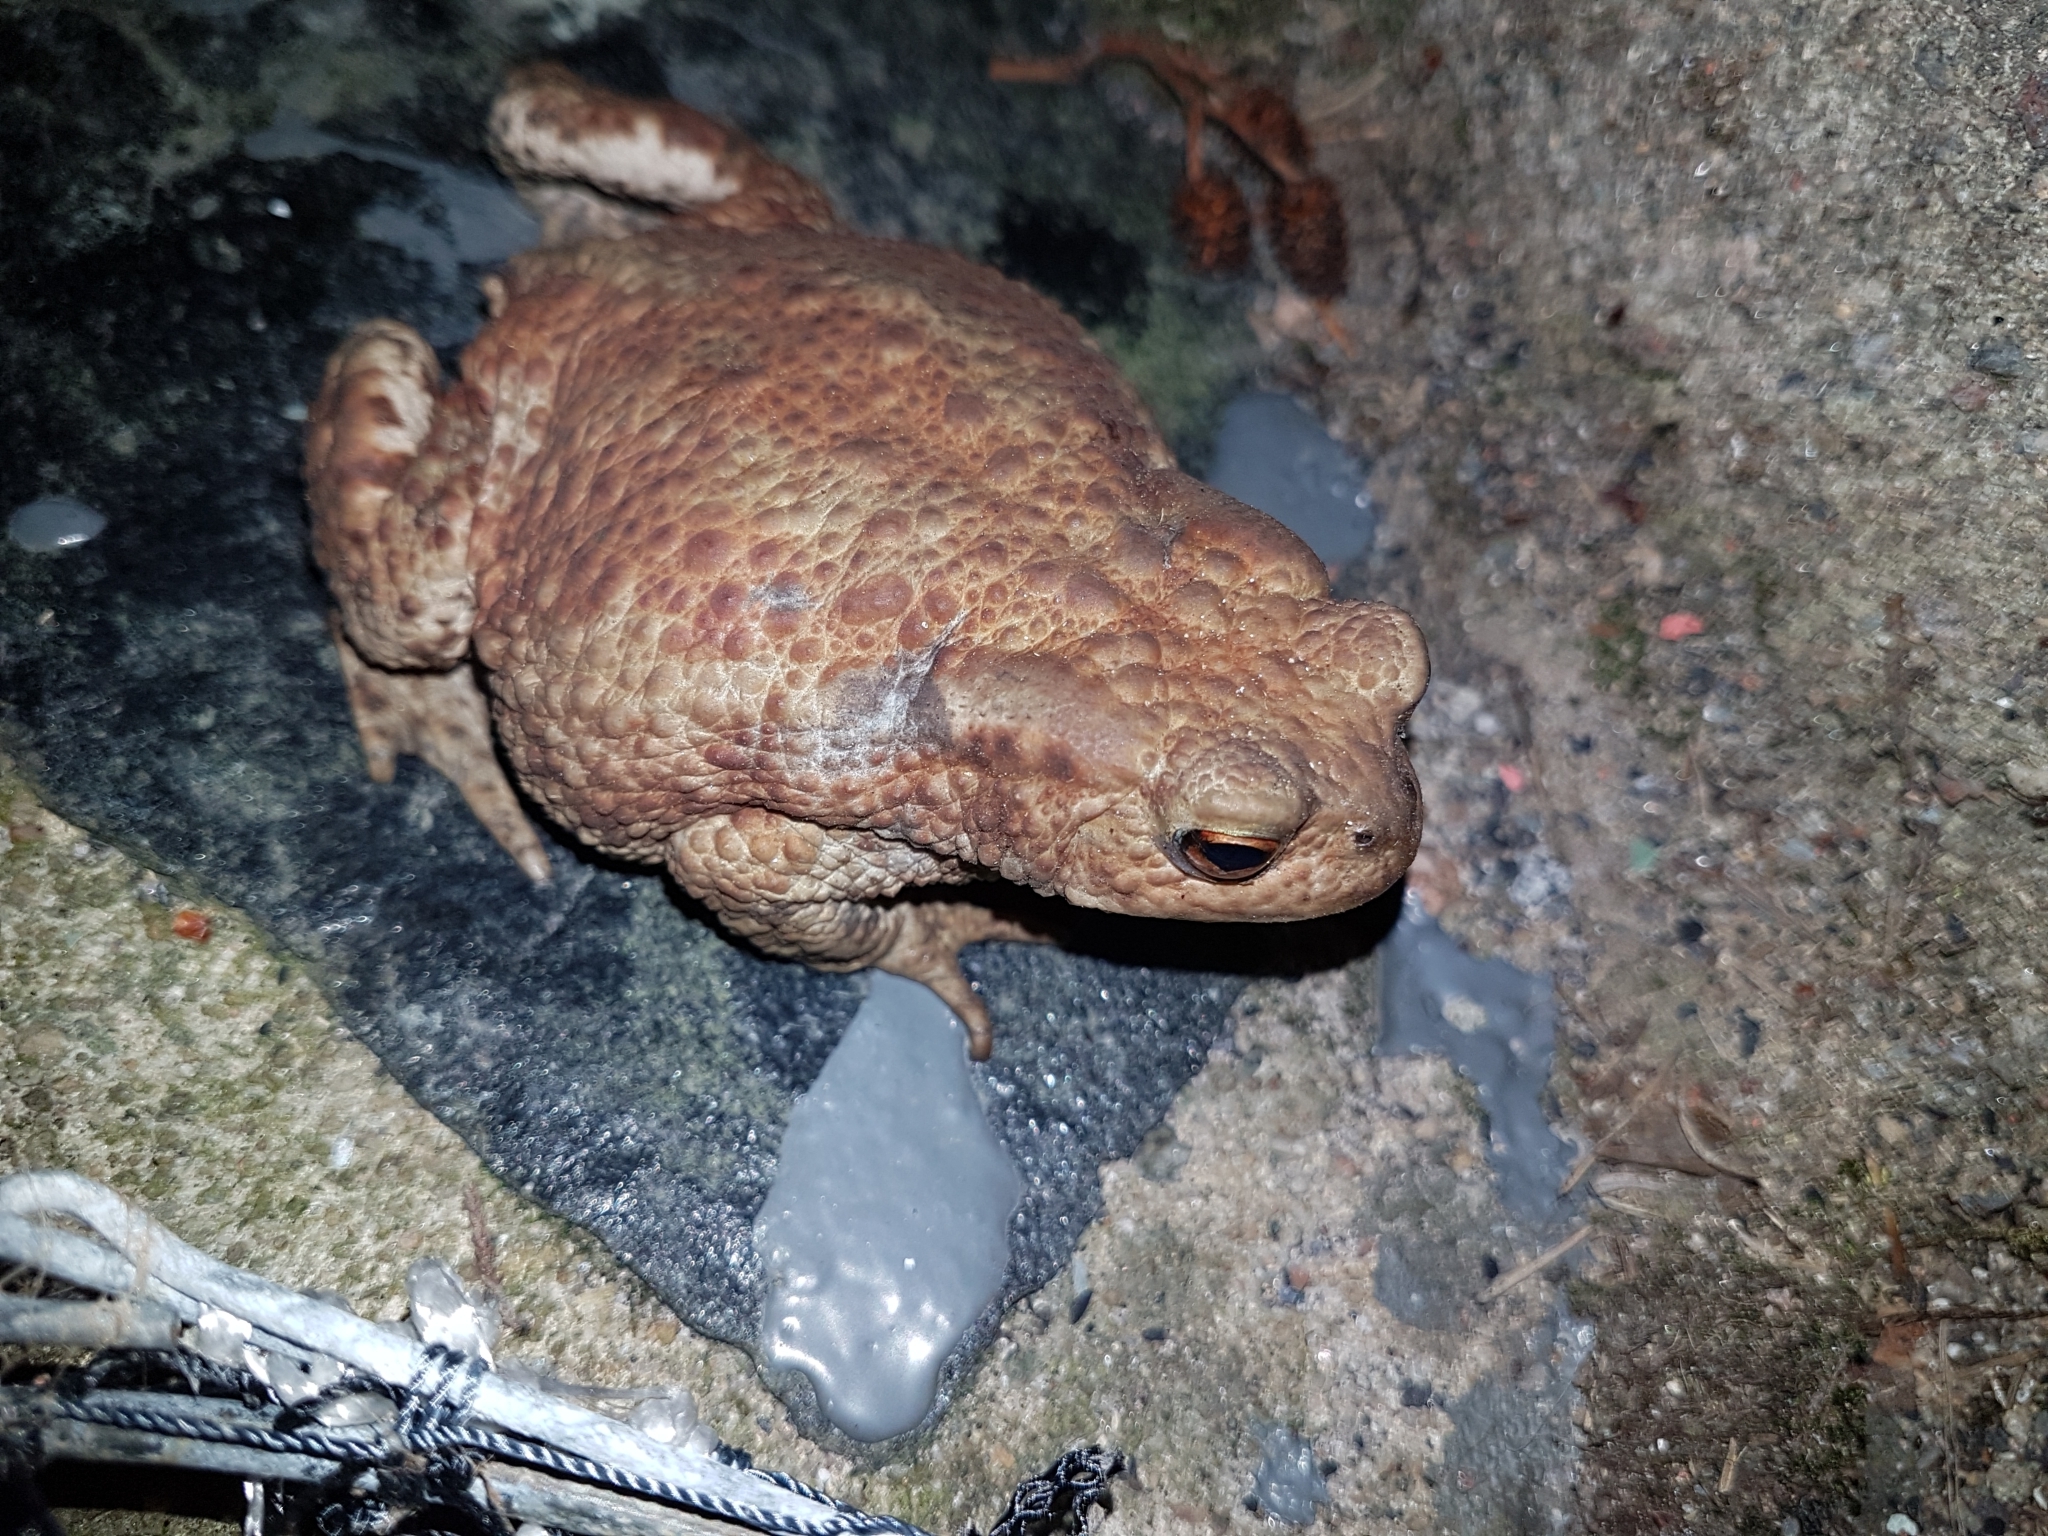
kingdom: Animalia
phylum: Chordata
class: Amphibia
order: Anura
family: Bufonidae
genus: Bufo
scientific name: Bufo bufo
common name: Common toad
